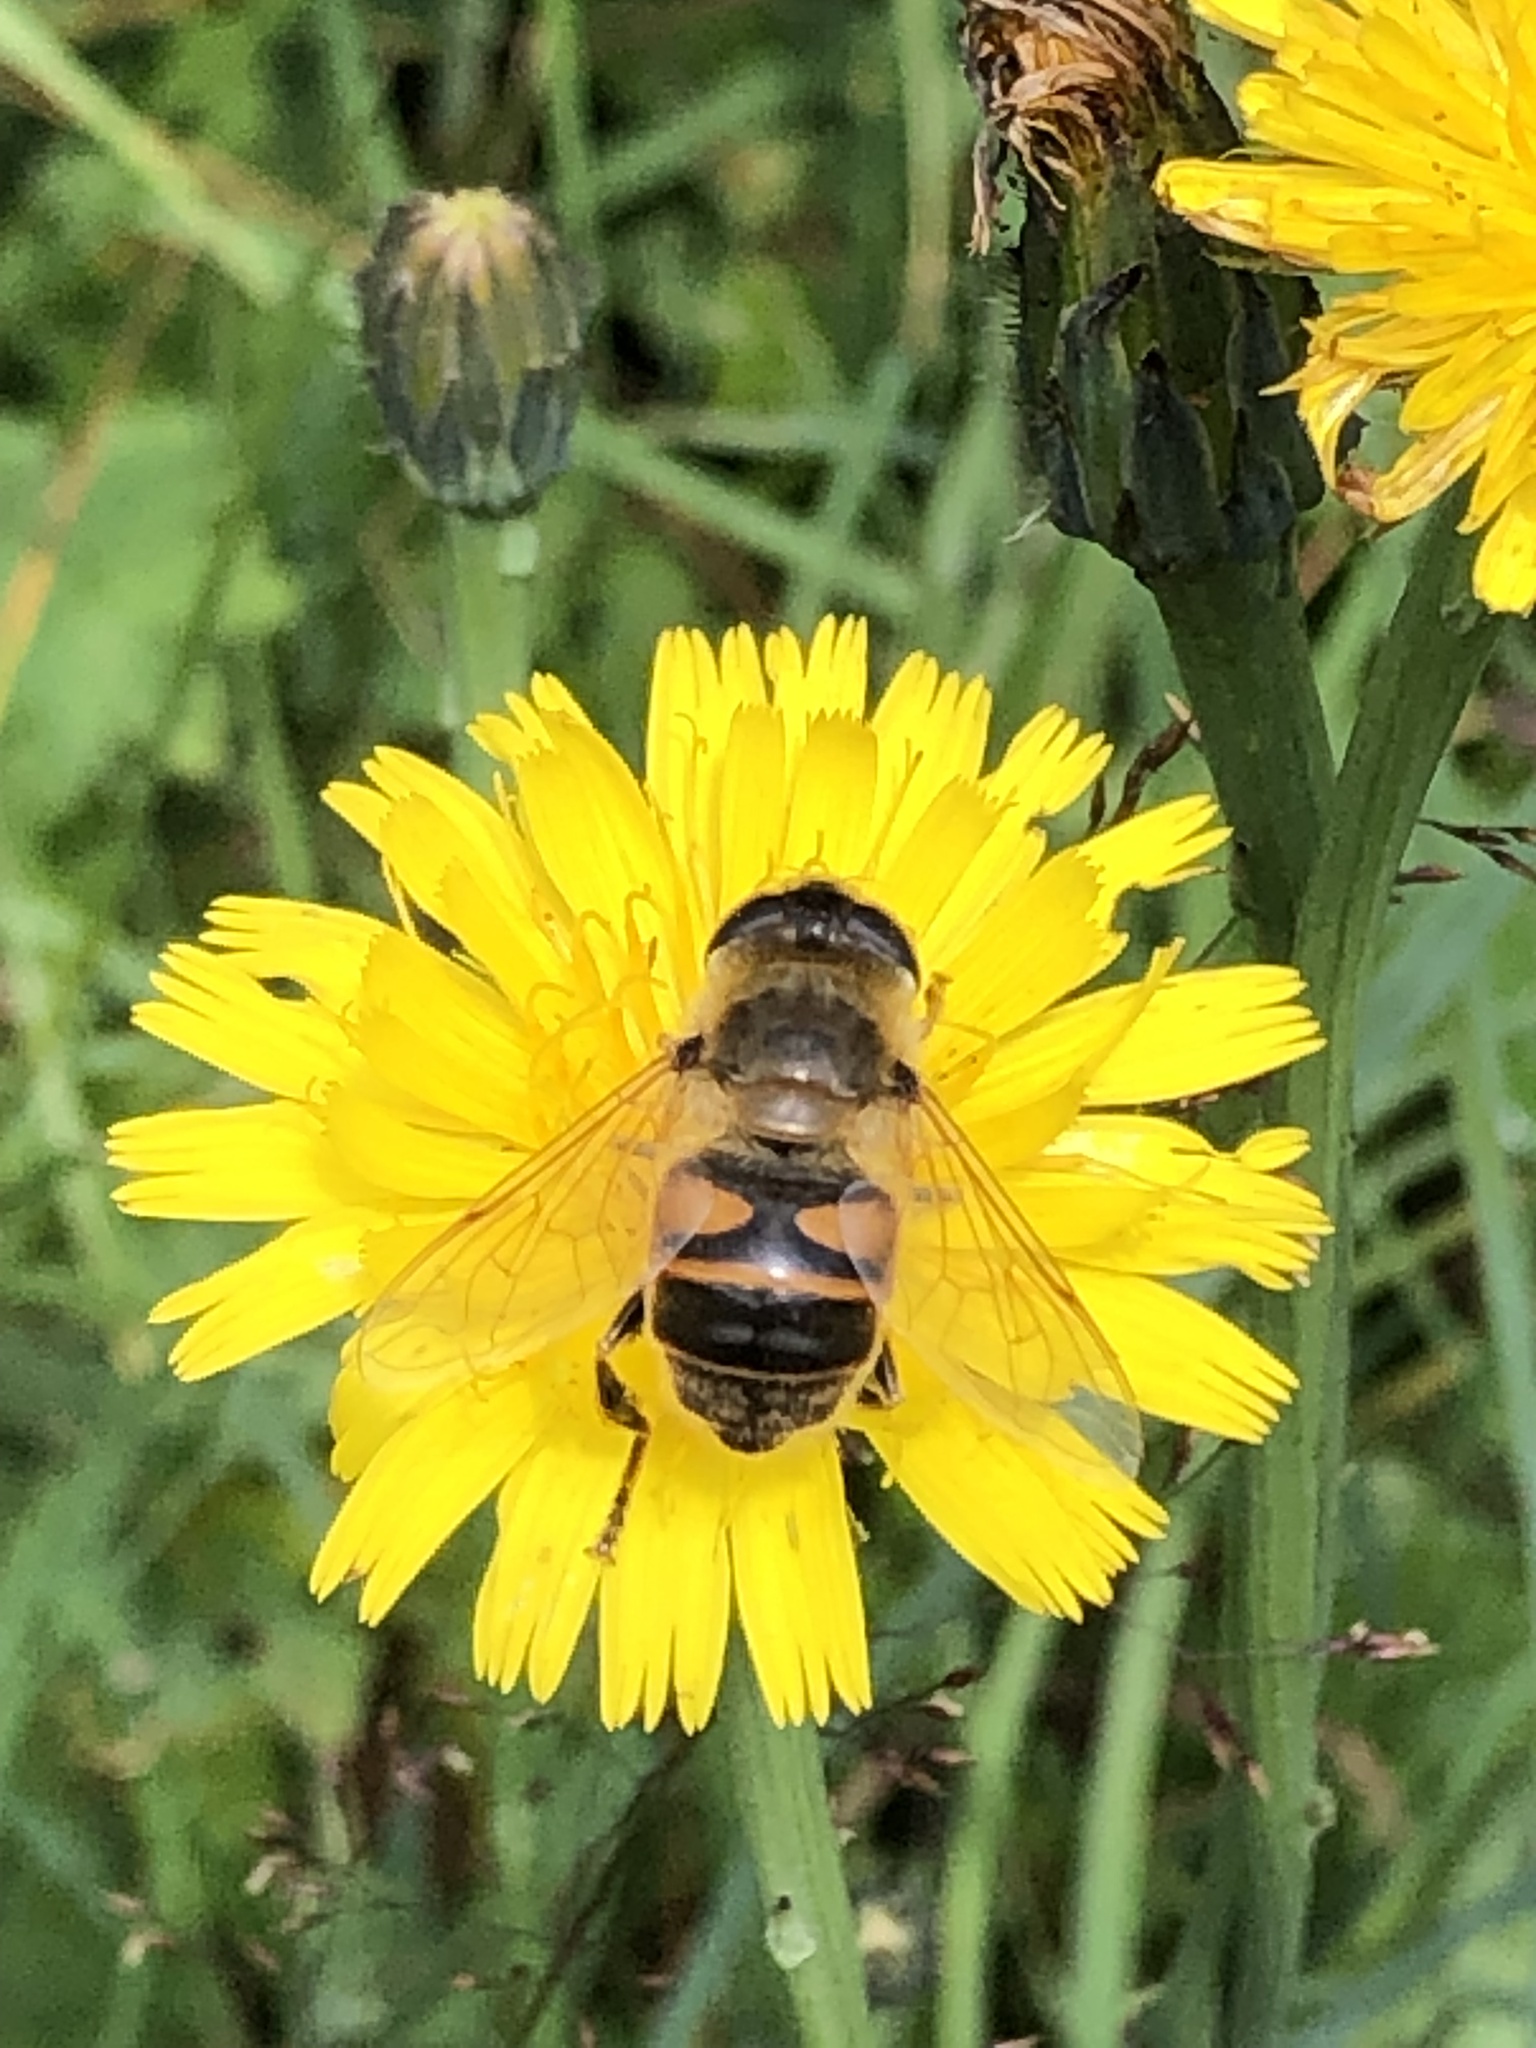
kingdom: Animalia
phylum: Arthropoda
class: Insecta
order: Diptera
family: Syrphidae
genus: Eristalis
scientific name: Eristalis tenax
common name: Drone fly
